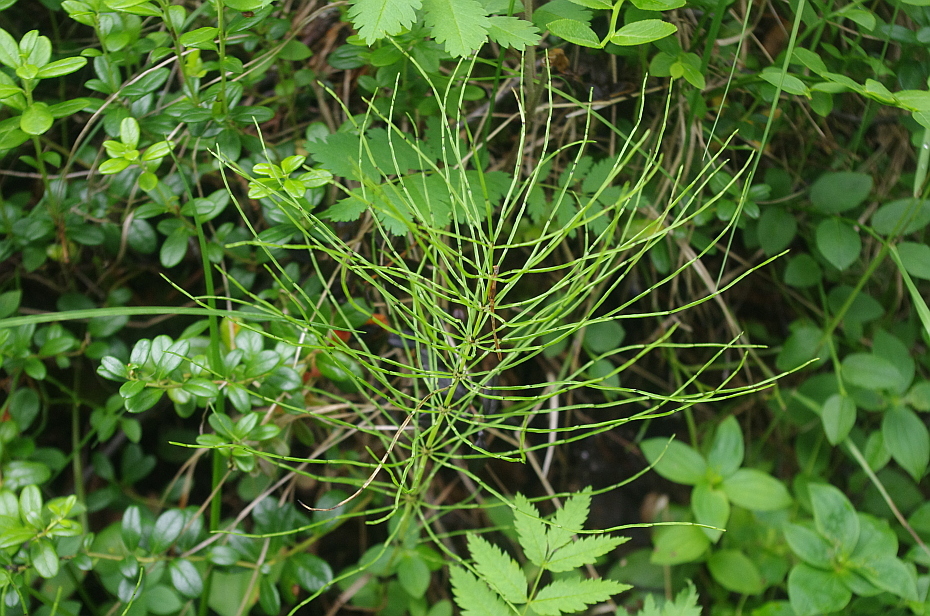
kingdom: Plantae
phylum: Tracheophyta
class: Polypodiopsida
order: Equisetales
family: Equisetaceae
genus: Equisetum
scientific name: Equisetum arvense
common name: Field horsetail
